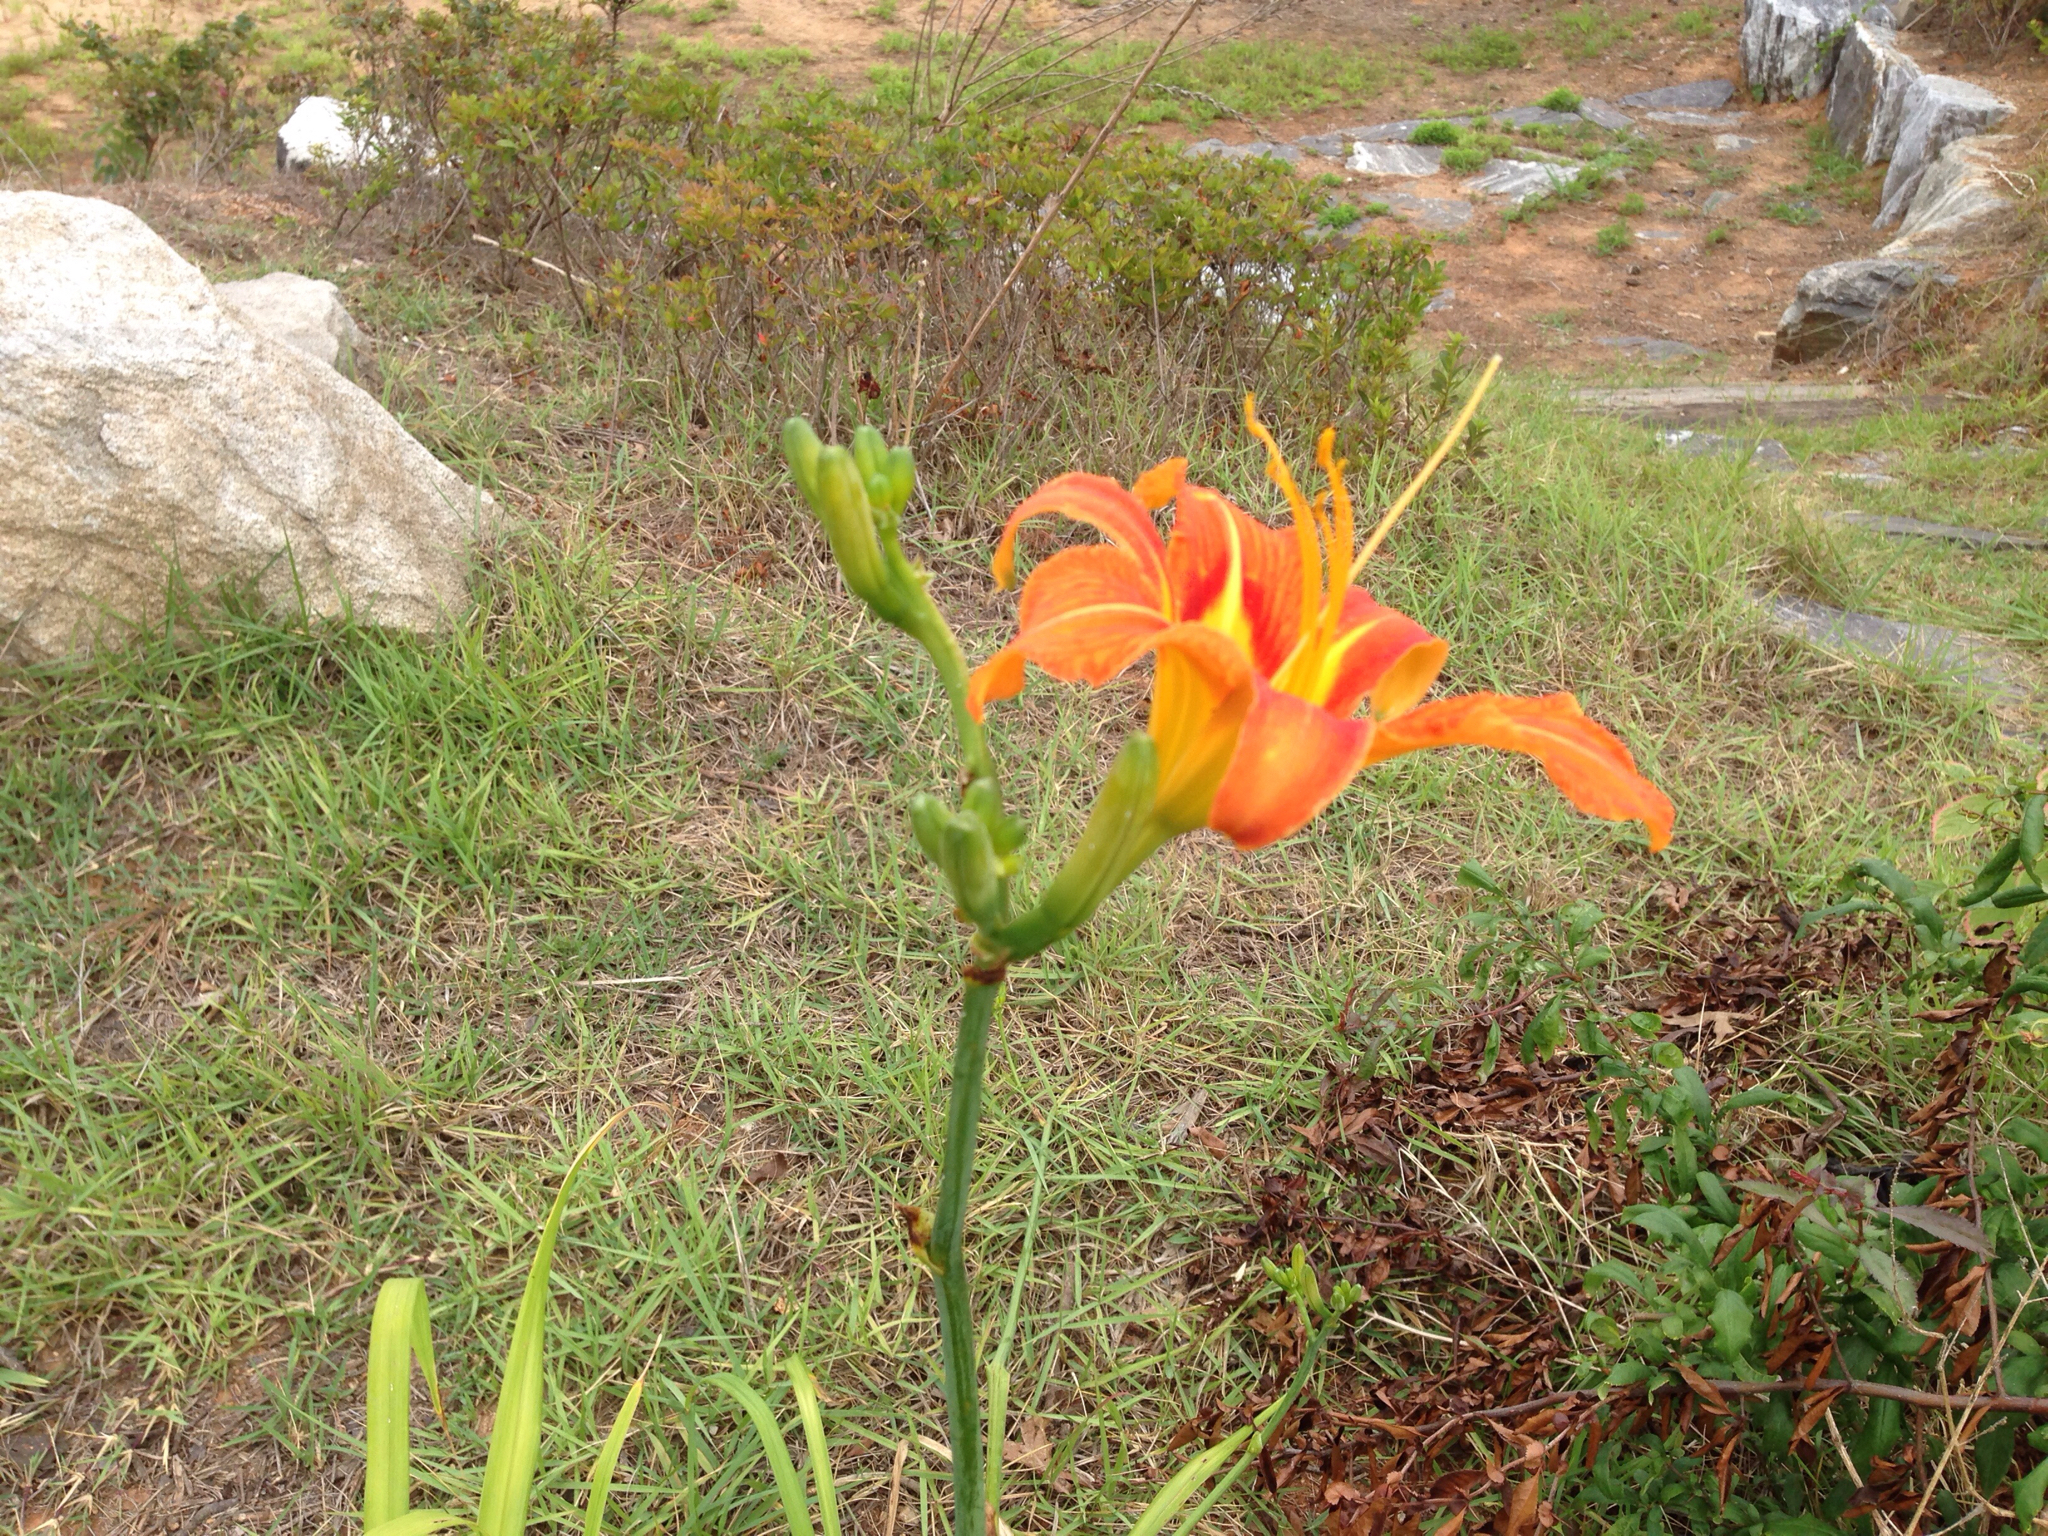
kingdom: Plantae
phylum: Tracheophyta
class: Liliopsida
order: Asparagales
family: Asphodelaceae
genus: Hemerocallis
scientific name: Hemerocallis fulva
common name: Orange day-lily
